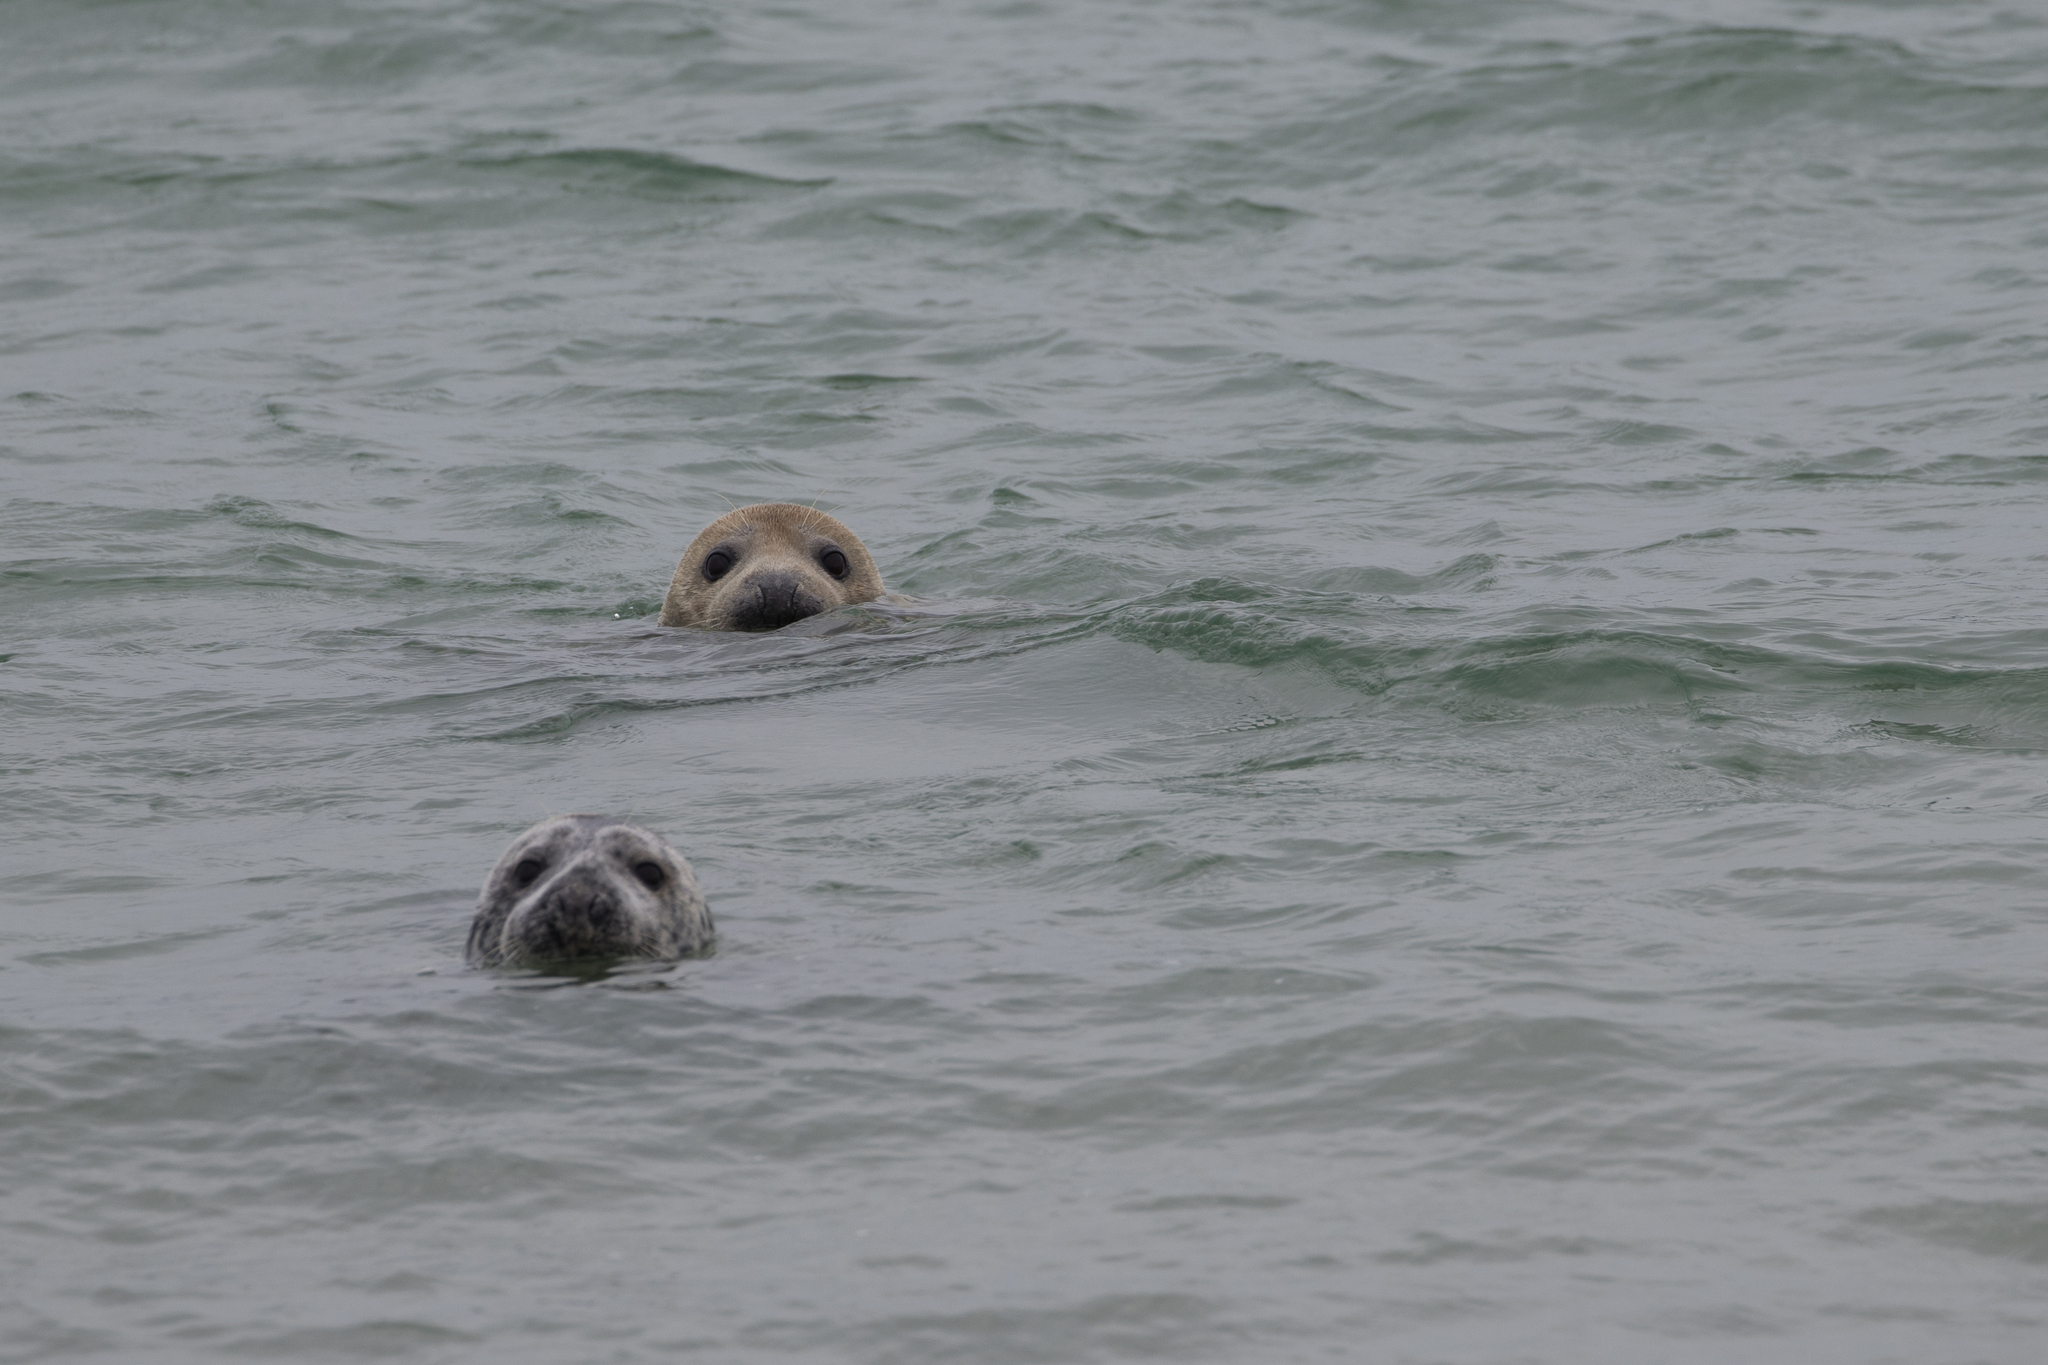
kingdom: Animalia
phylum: Chordata
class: Mammalia
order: Carnivora
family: Phocidae
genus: Halichoerus
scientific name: Halichoerus grypus
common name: Grey seal
